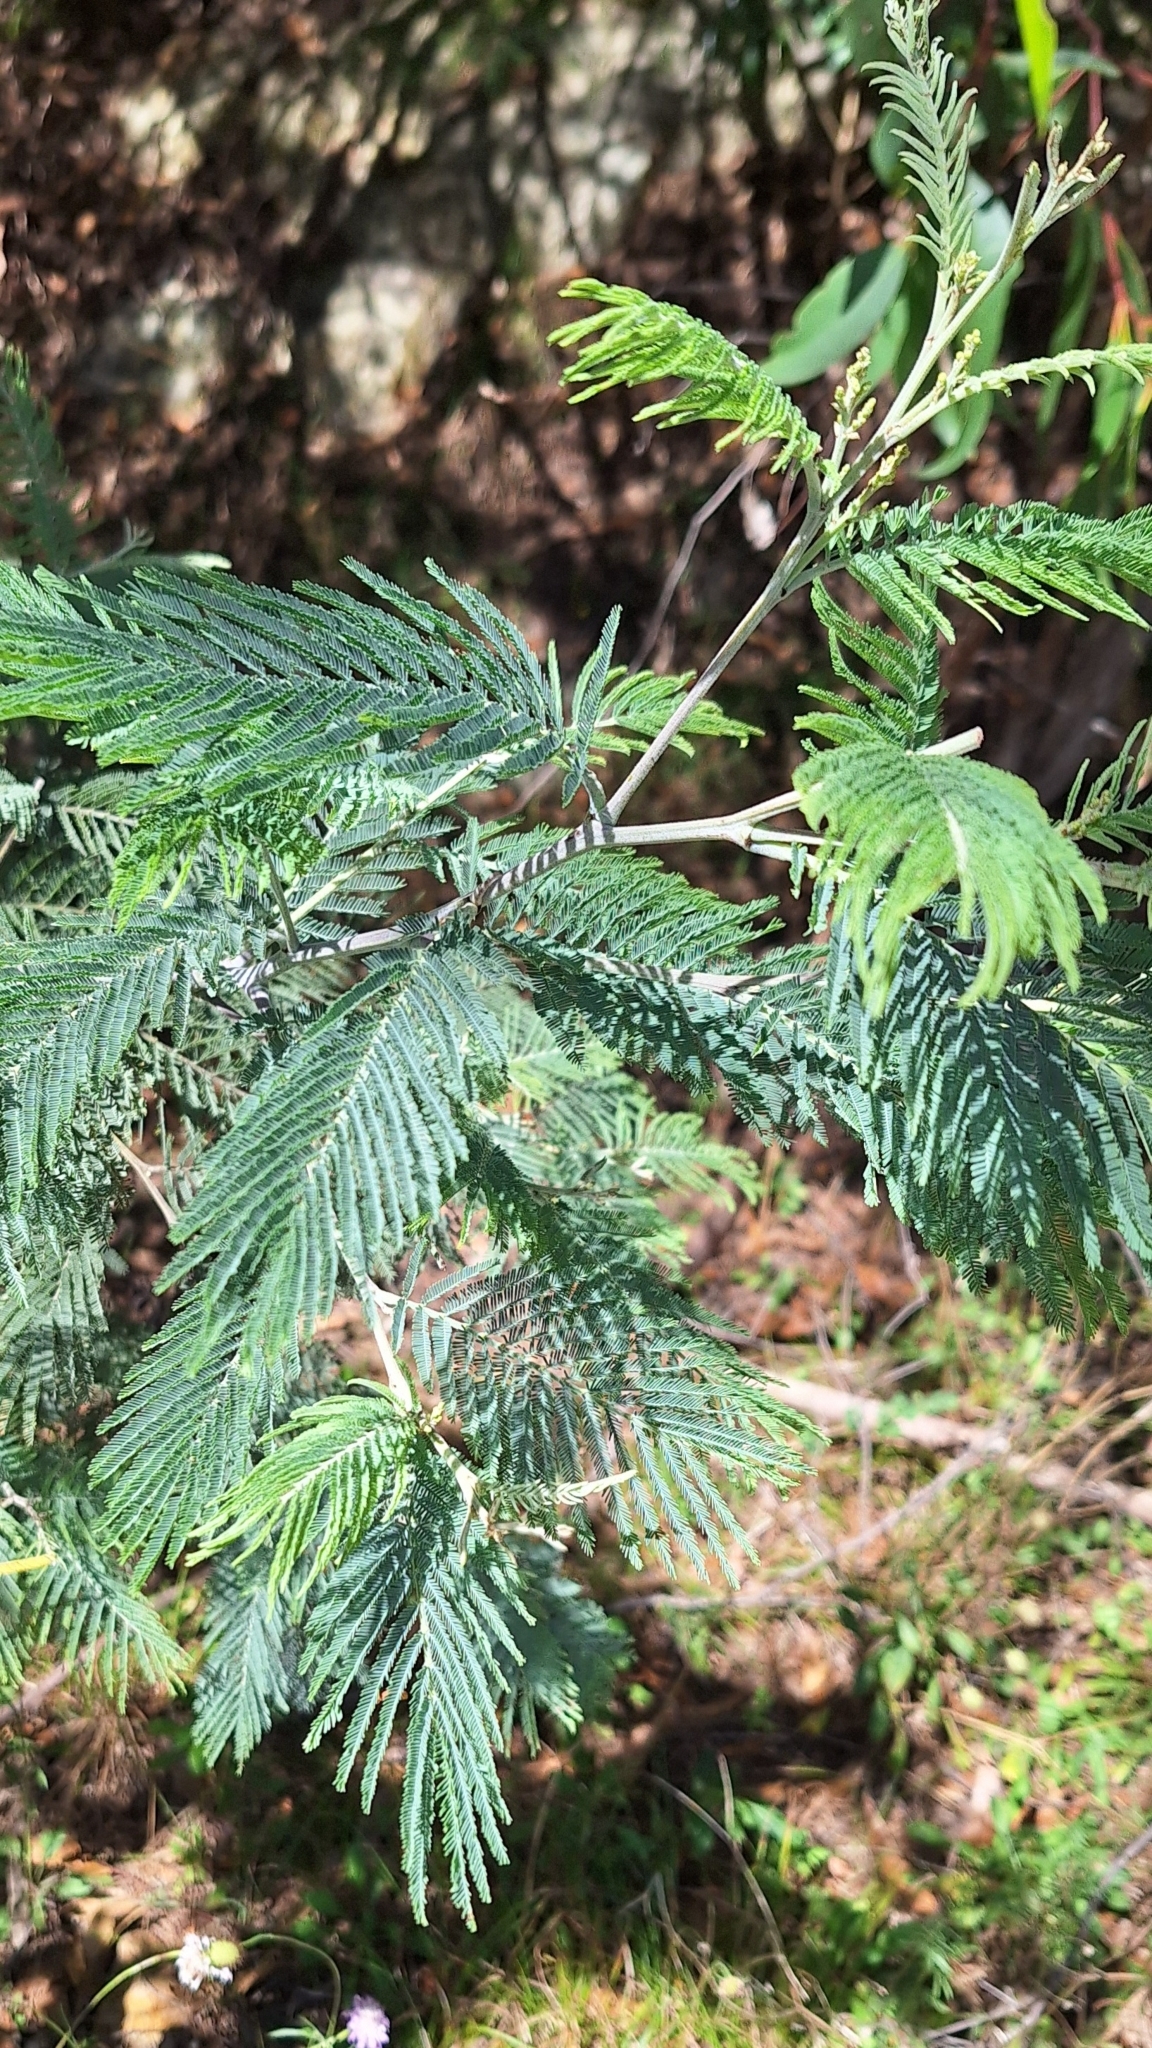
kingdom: Plantae
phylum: Tracheophyta
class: Magnoliopsida
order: Fabales
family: Fabaceae
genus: Acacia
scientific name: Acacia dealbata
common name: Silver wattle
